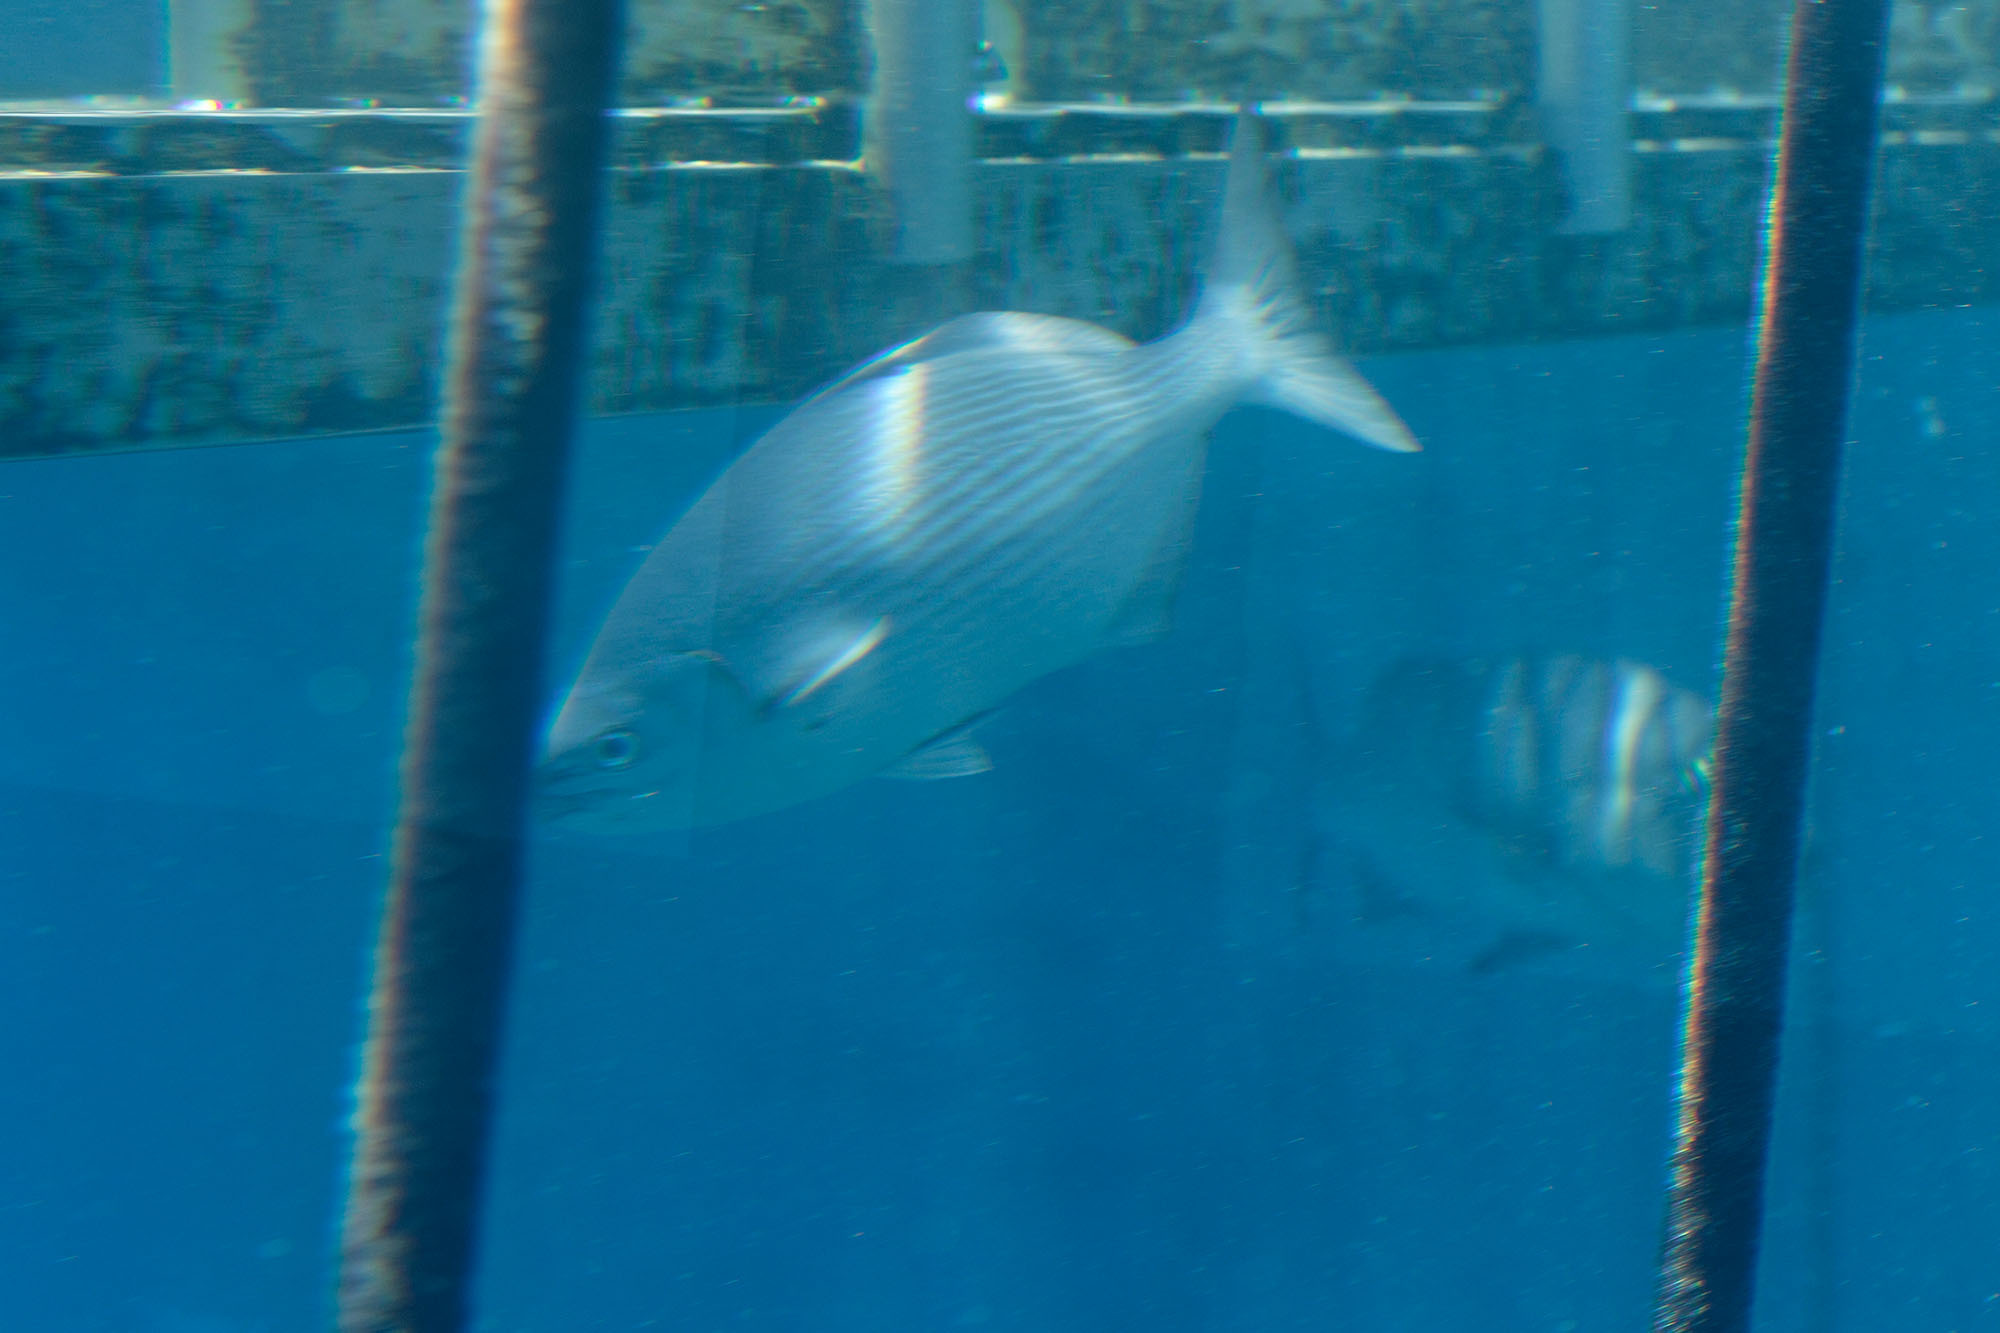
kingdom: Animalia
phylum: Chordata
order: Perciformes
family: Kyphosidae
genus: Kyphosus
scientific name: Kyphosus vaigiensis
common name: Brassy chub
